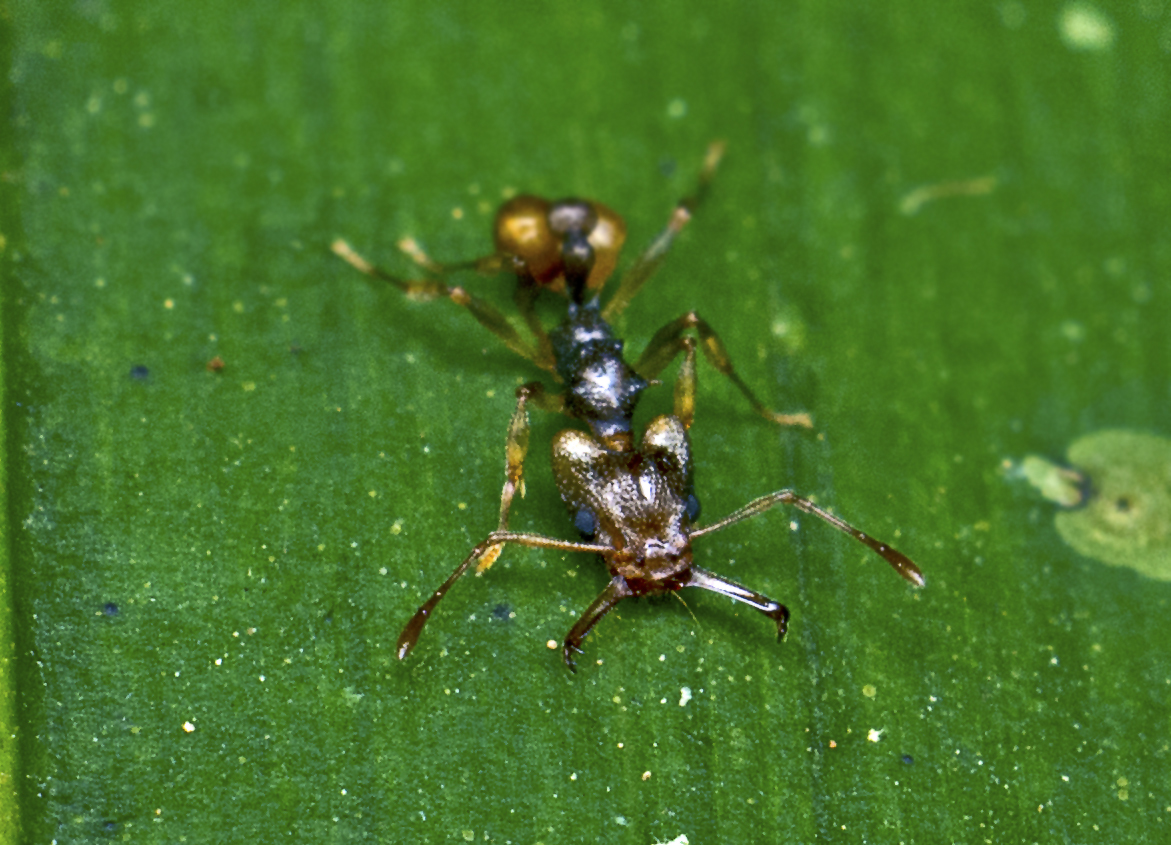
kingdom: Animalia
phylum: Arthropoda
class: Insecta
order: Hymenoptera
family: Formicidae
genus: Orectognathus
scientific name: Orectognathus versicolor
